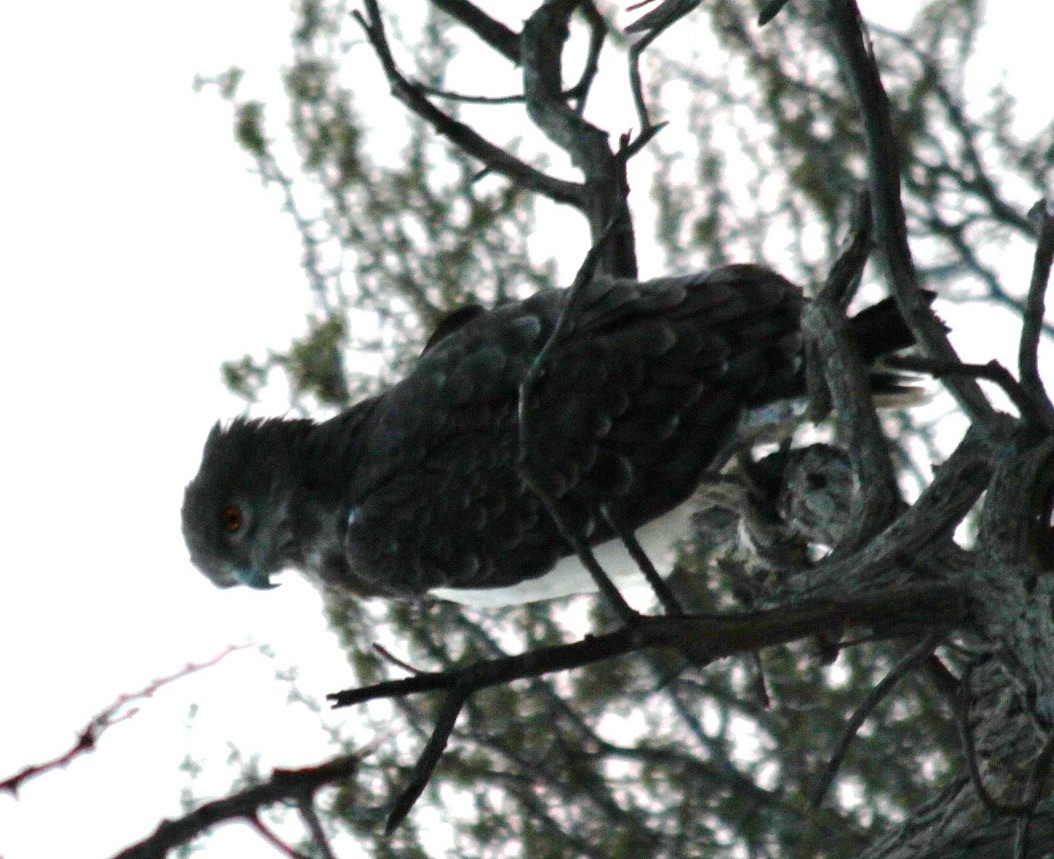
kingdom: Animalia
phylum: Chordata
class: Aves
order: Accipitriformes
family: Accipitridae
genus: Circaetus
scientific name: Circaetus pectoralis
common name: Black-chested snake eagle
